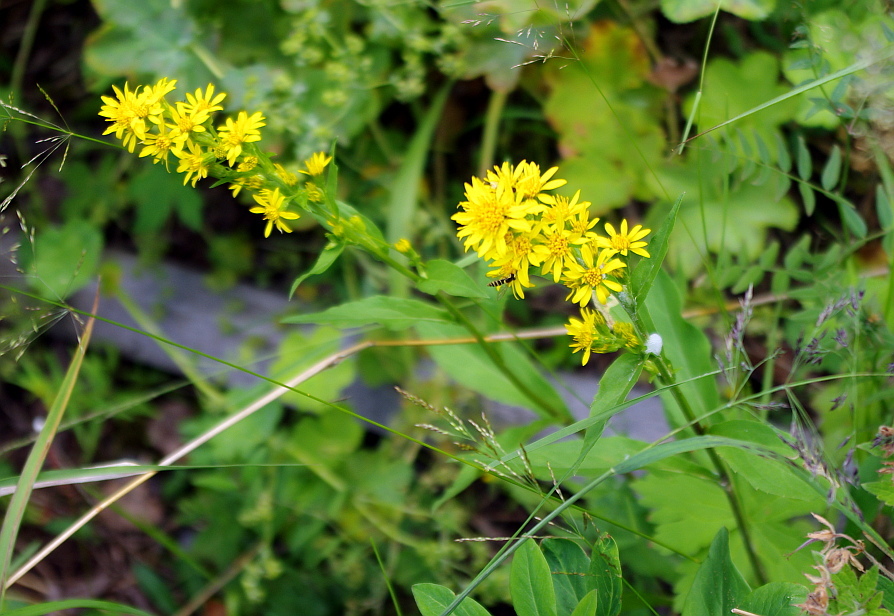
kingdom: Plantae
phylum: Tracheophyta
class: Magnoliopsida
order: Asterales
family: Asteraceae
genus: Solidago
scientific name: Solidago virgaurea
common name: Goldenrod
